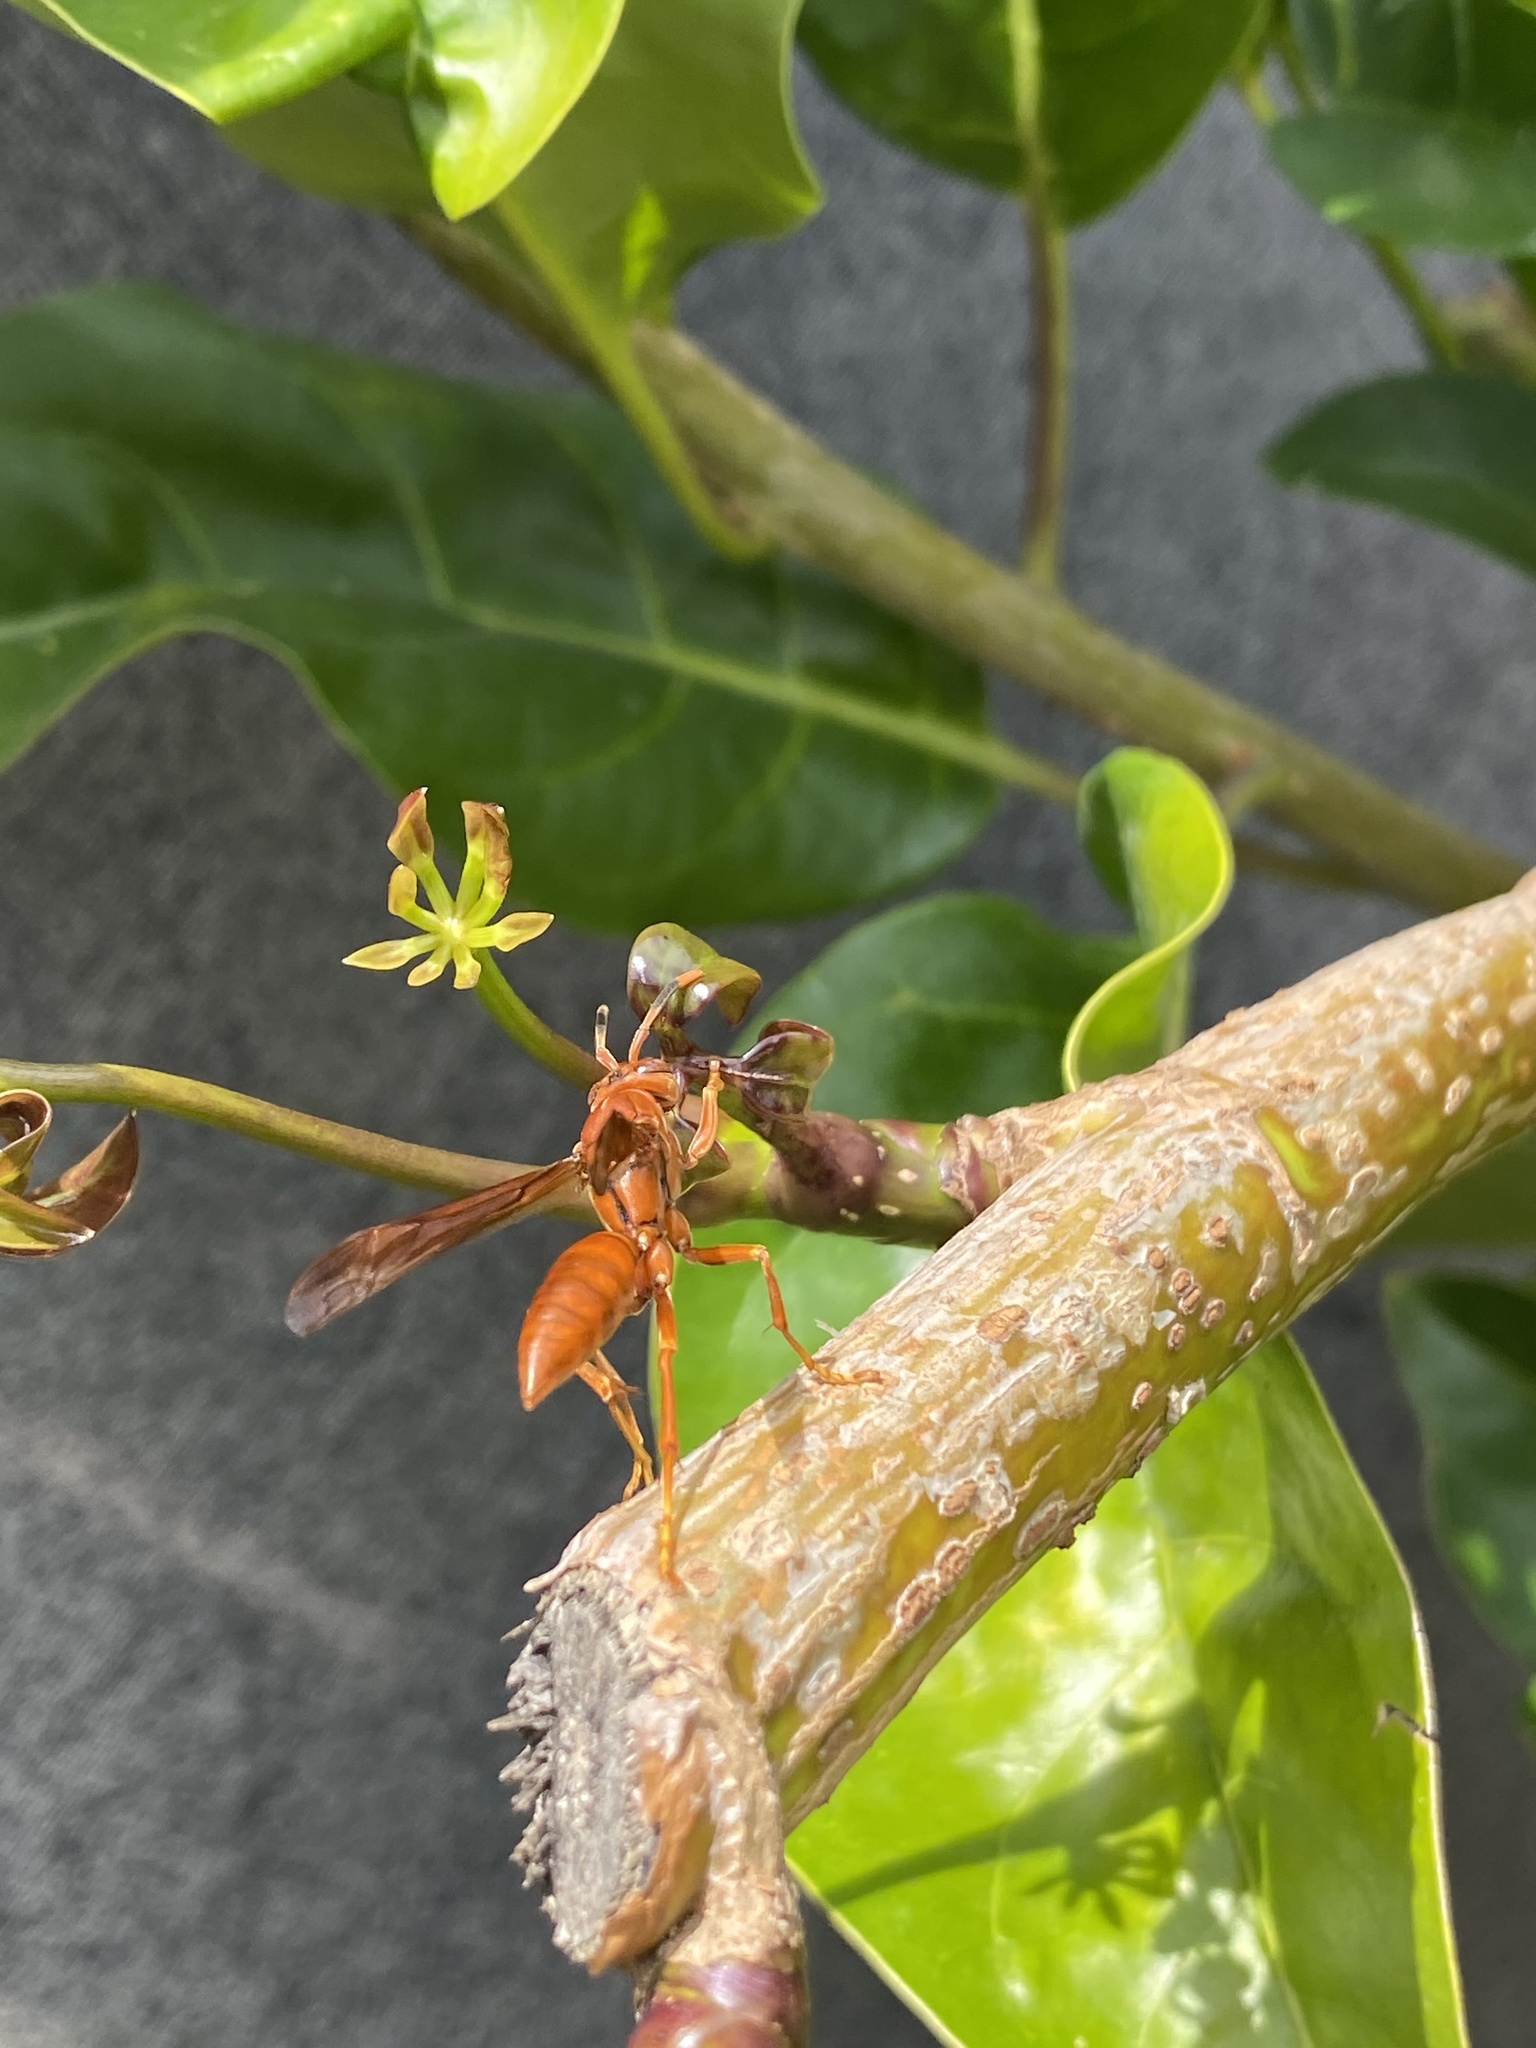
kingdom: Animalia
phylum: Arthropoda
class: Insecta
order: Hymenoptera
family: Eumenidae
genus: Polistes
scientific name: Polistes canadensis
